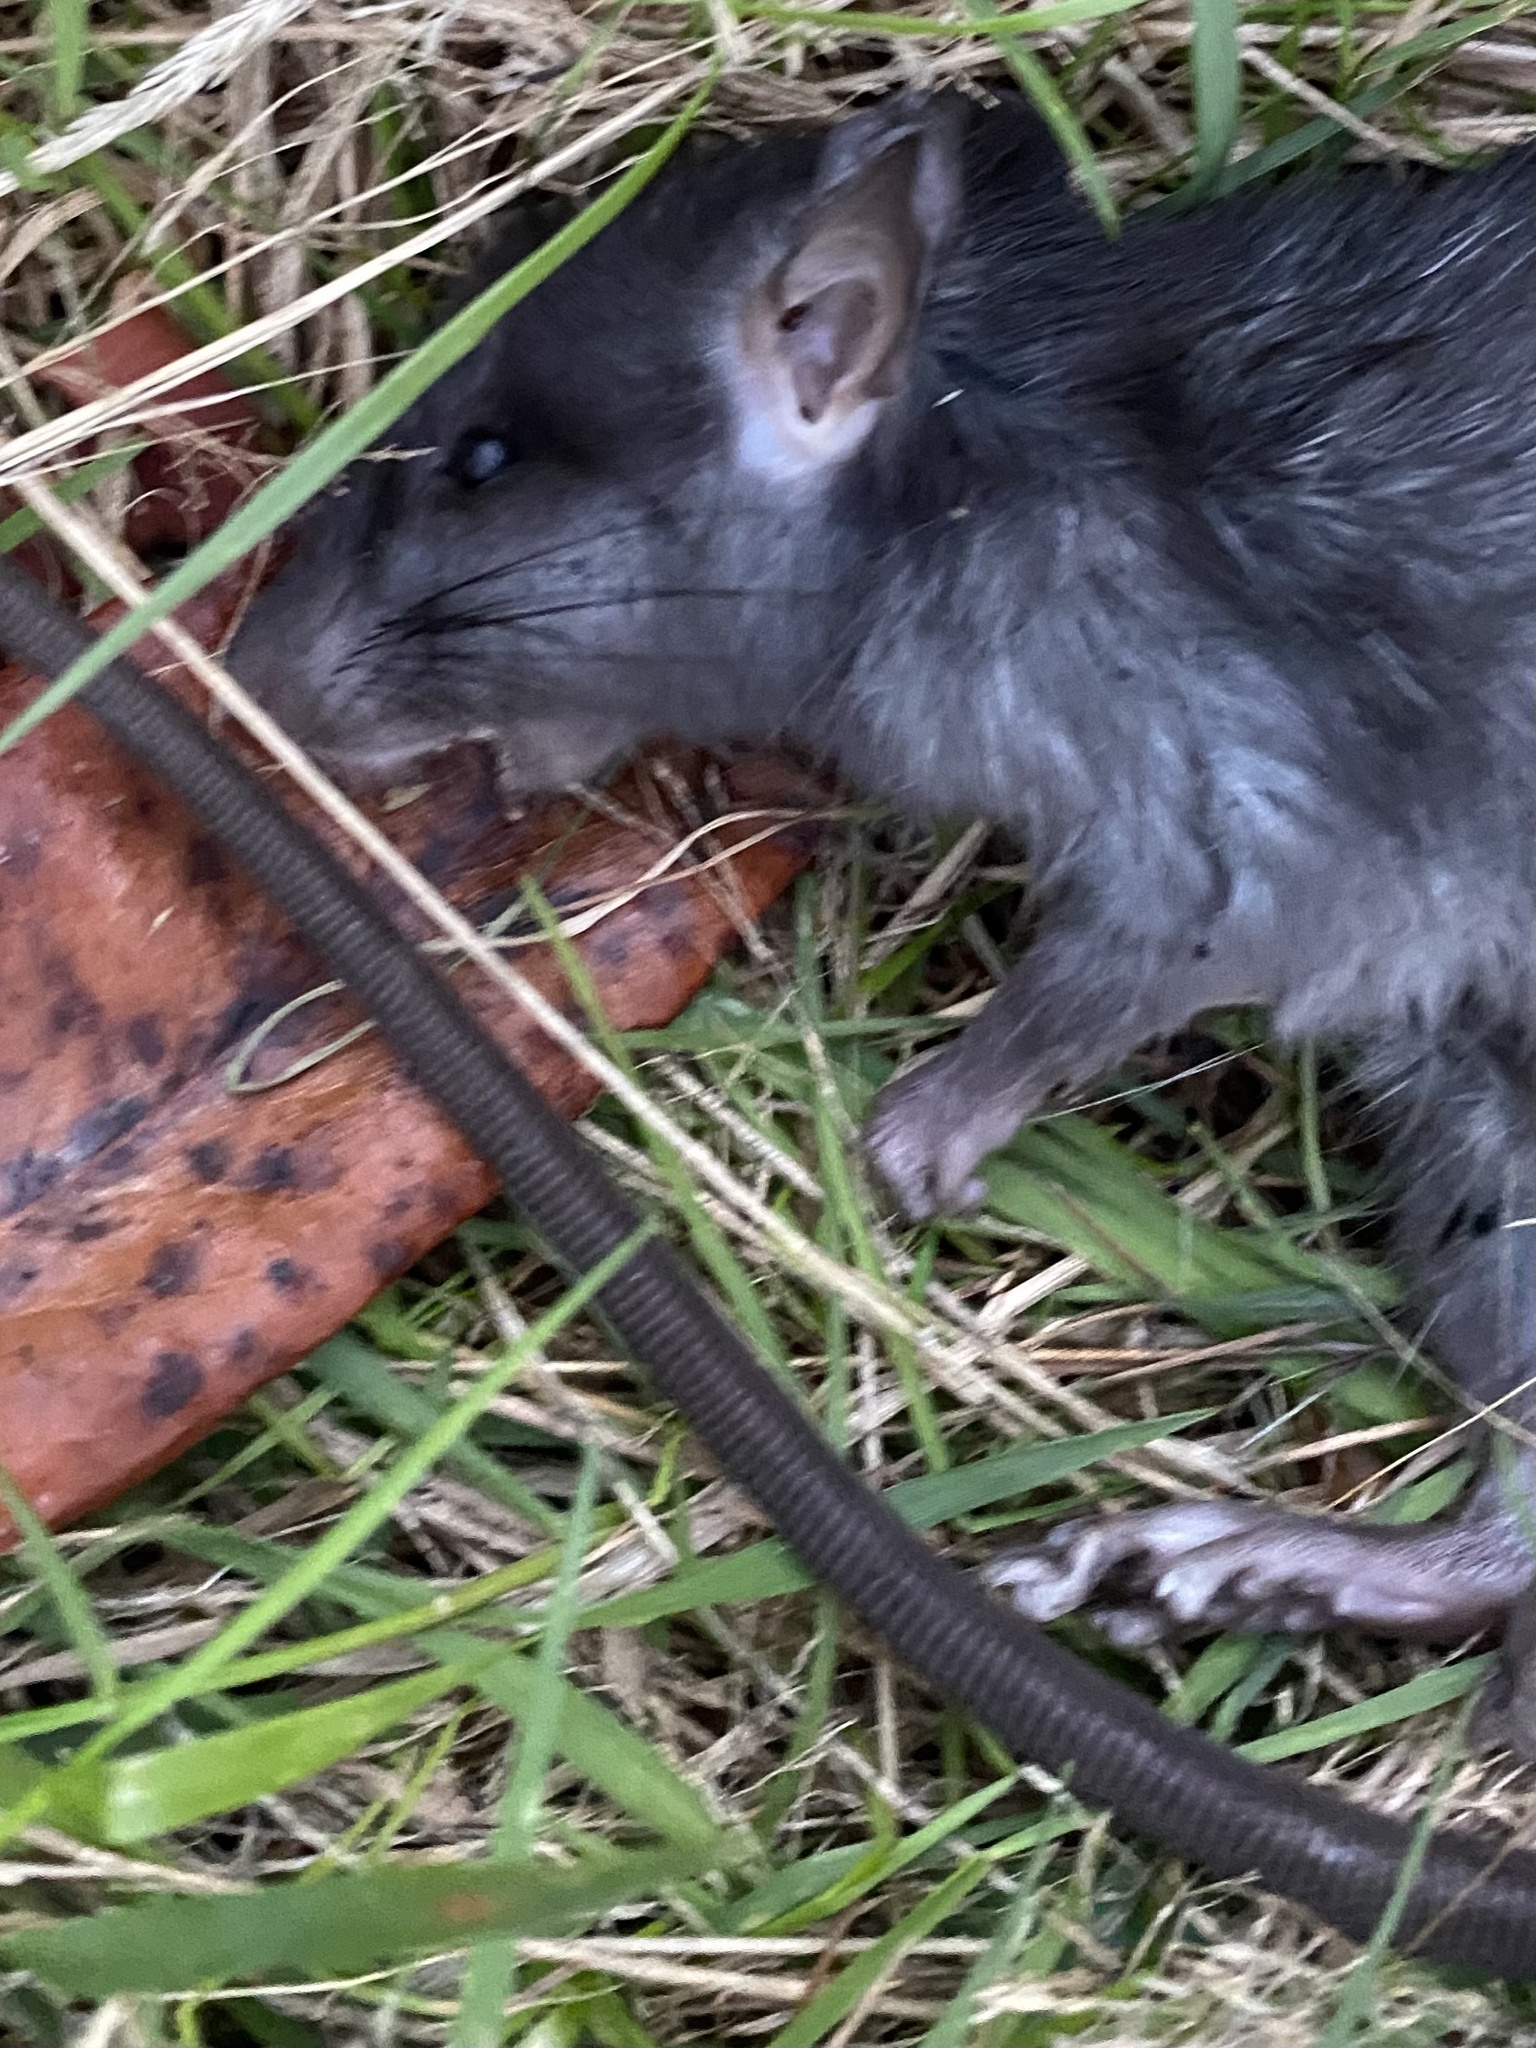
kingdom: Animalia
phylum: Chordata
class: Mammalia
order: Rodentia
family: Muridae
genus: Rattus
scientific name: Rattus rattus
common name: Black rat
